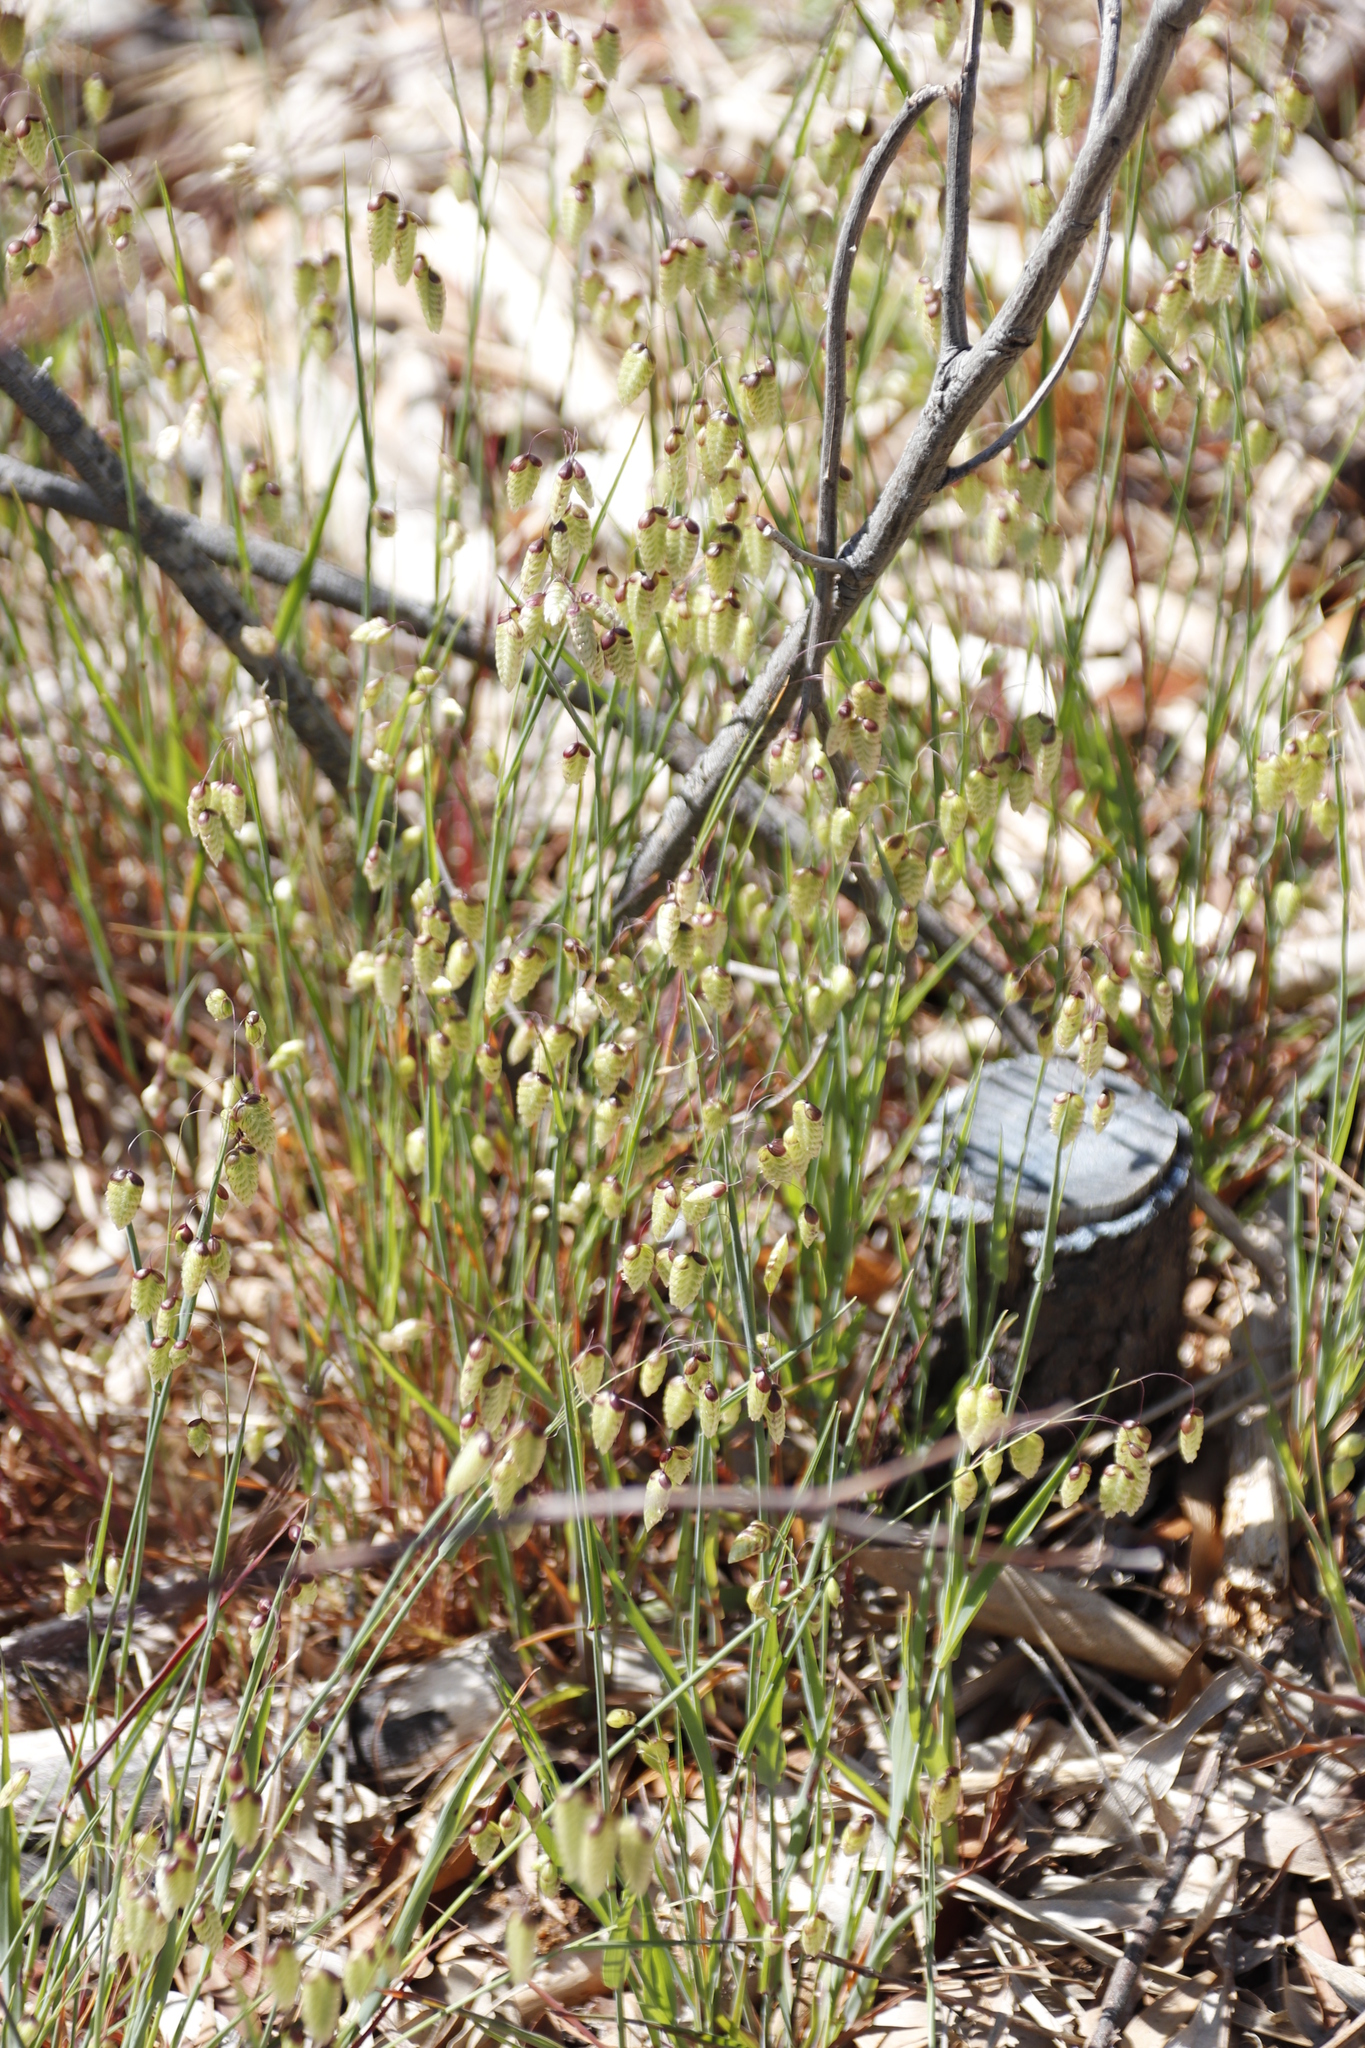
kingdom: Plantae
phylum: Tracheophyta
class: Liliopsida
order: Poales
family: Poaceae
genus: Briza
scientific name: Briza maxima
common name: Big quakinggrass
